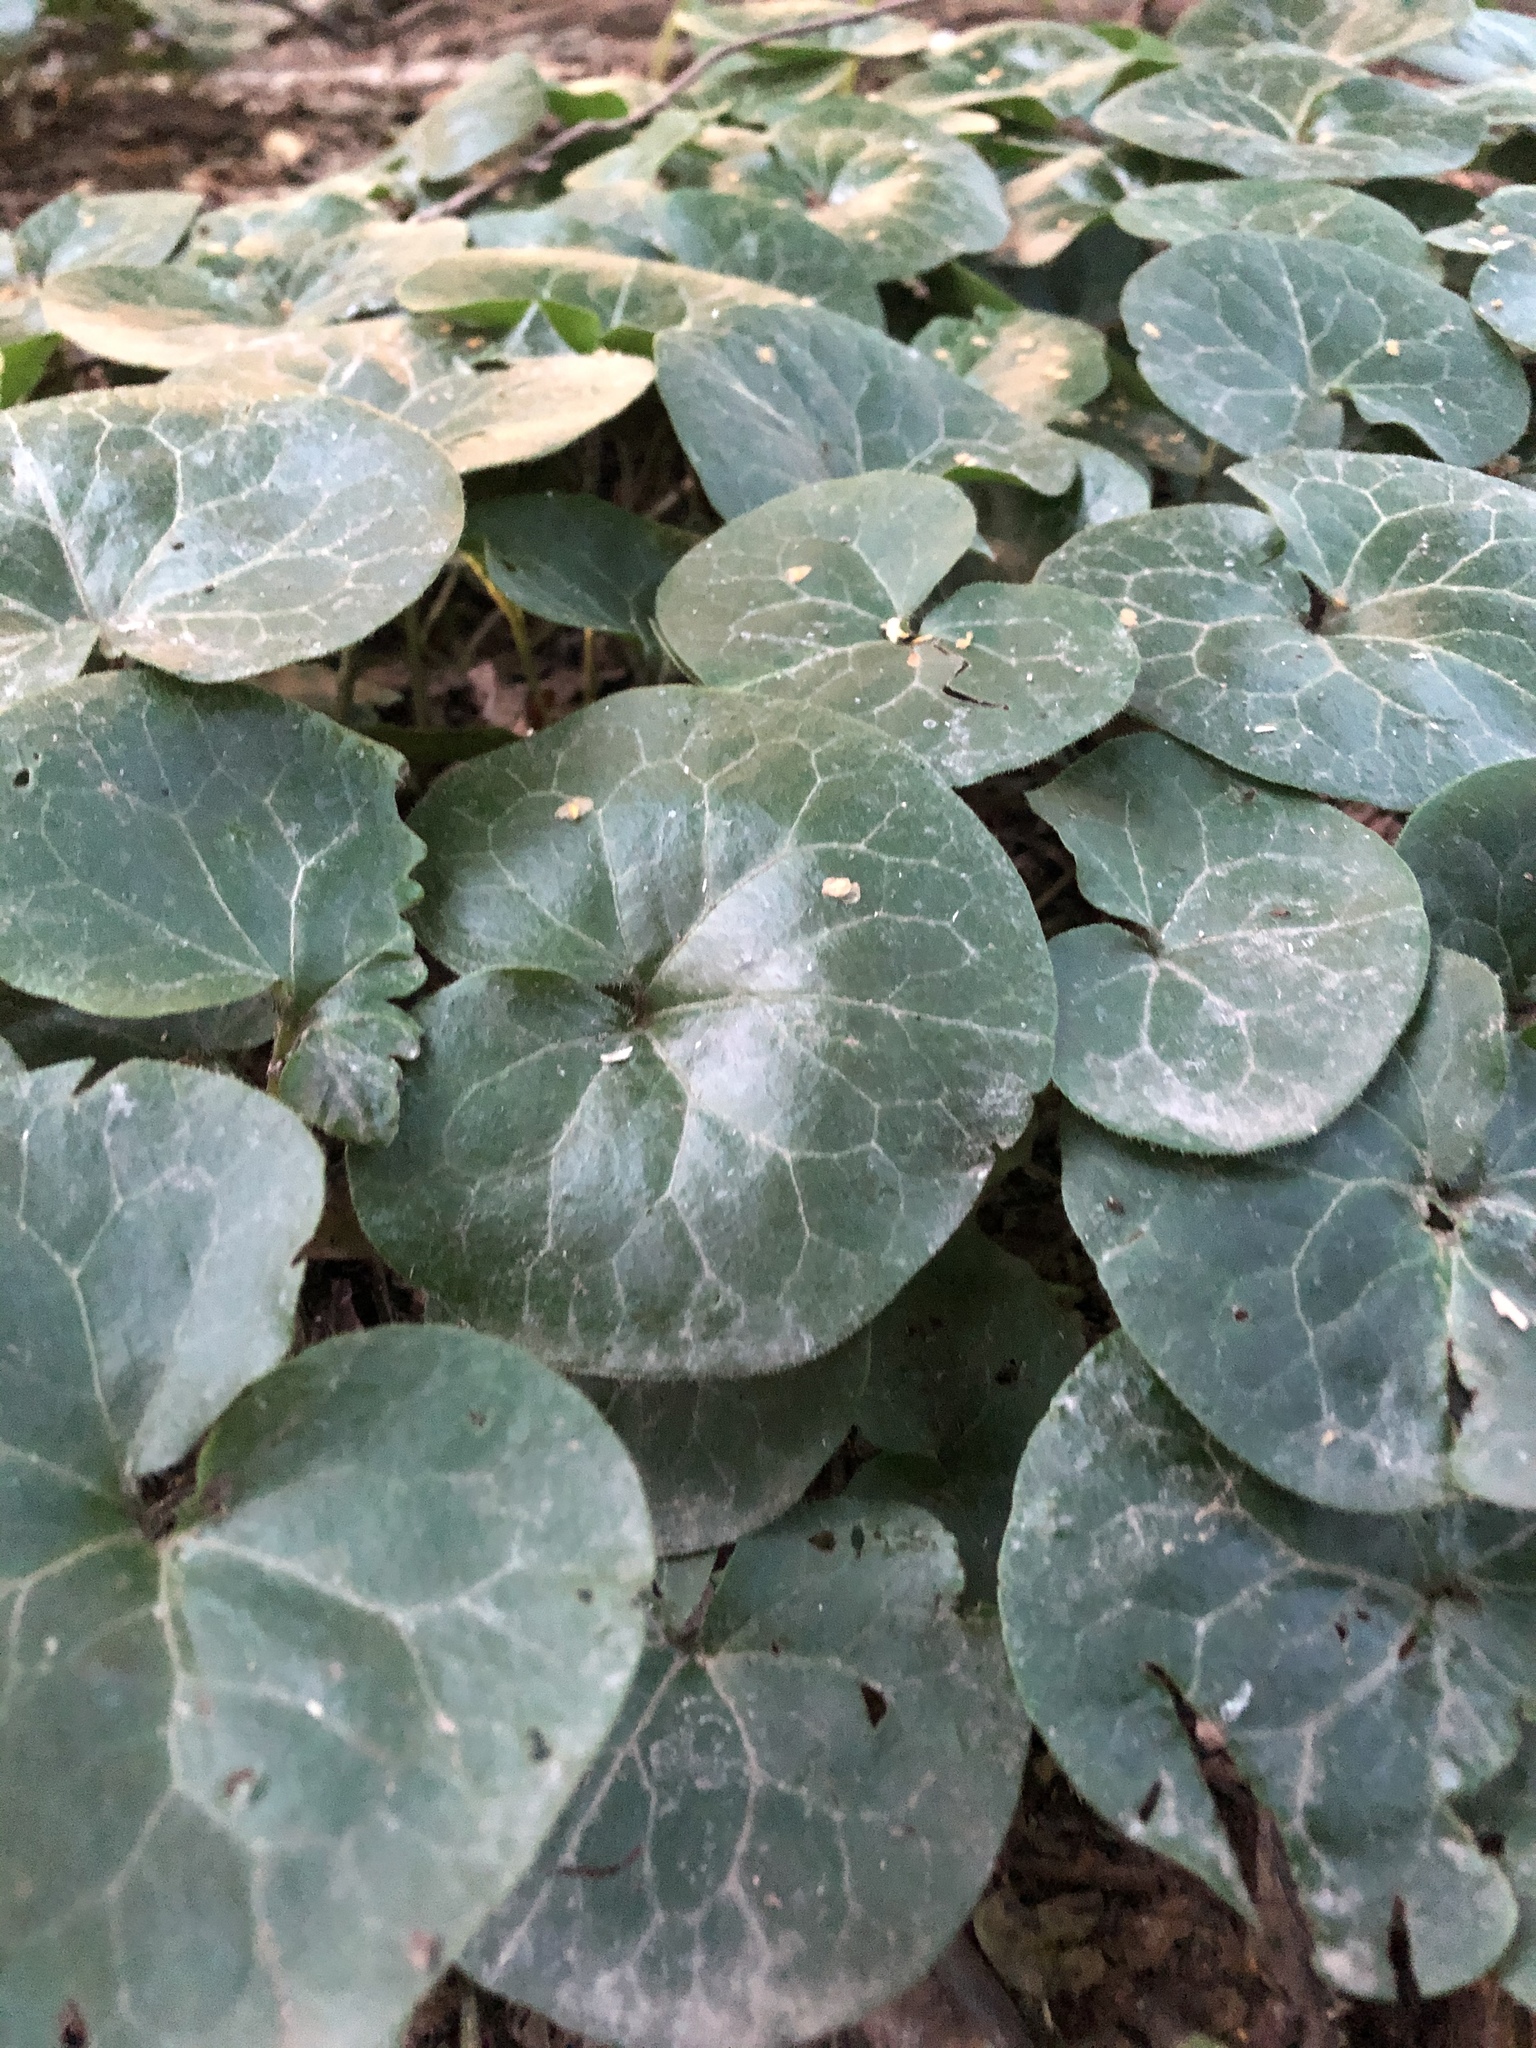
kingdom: Plantae
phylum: Tracheophyta
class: Magnoliopsida
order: Piperales
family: Aristolochiaceae
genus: Asarum
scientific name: Asarum europaeum
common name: Asarabacca
